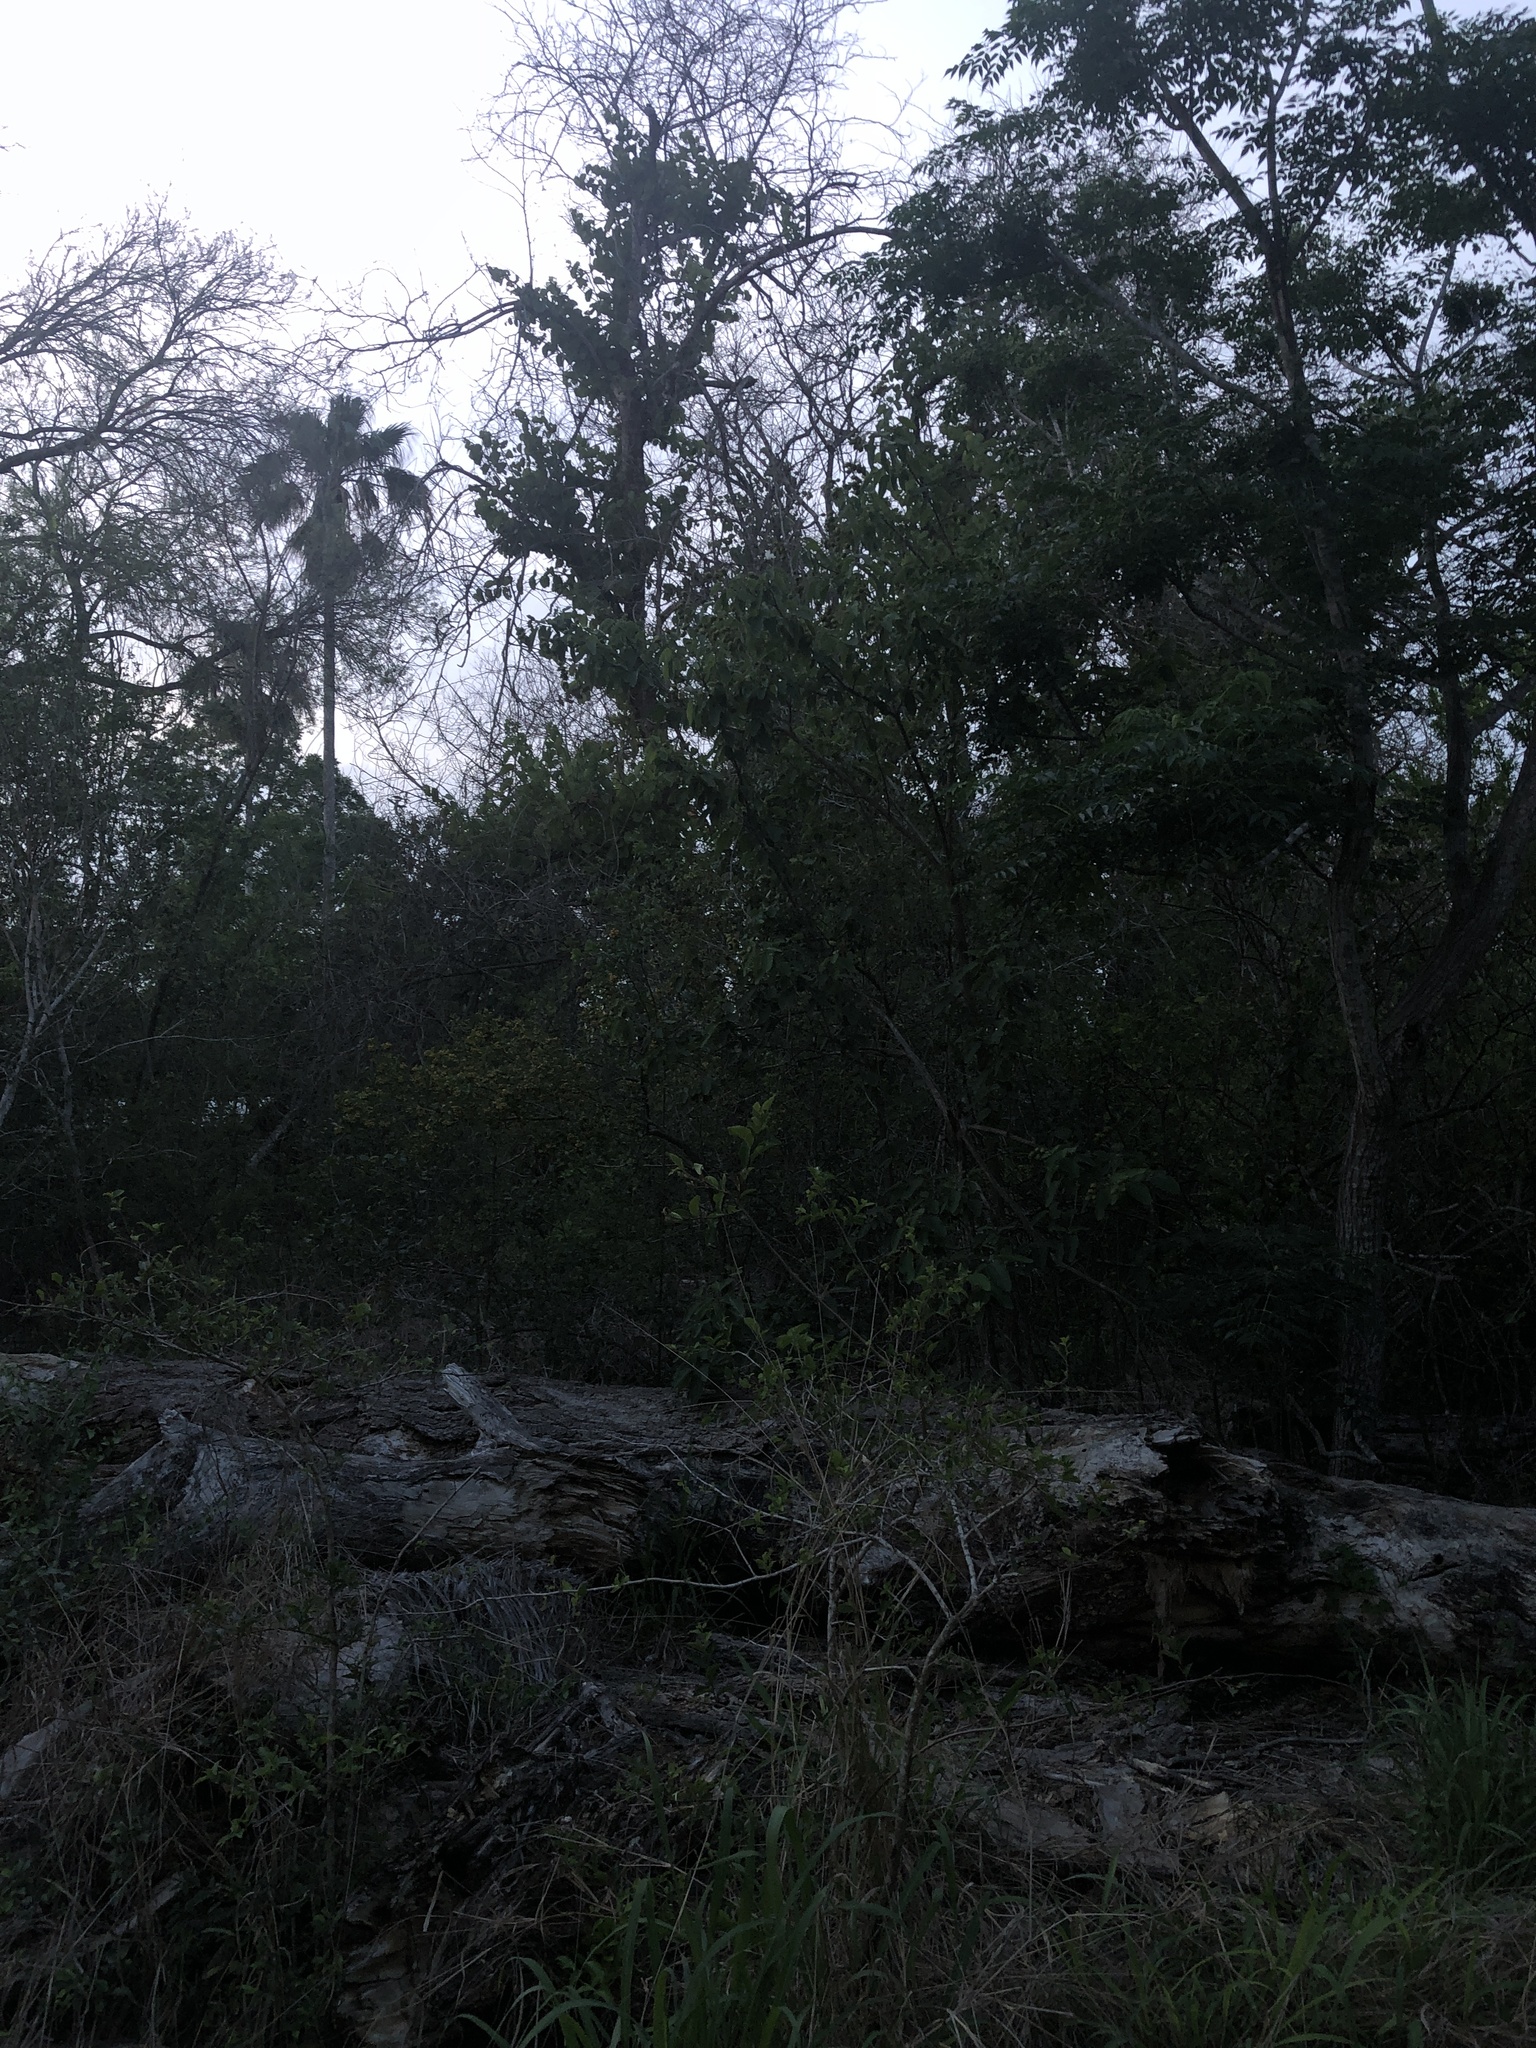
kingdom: Animalia
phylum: Arthropoda
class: Insecta
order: Hemiptera
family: Cicadidae
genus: Quesada
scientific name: Quesada gigas
